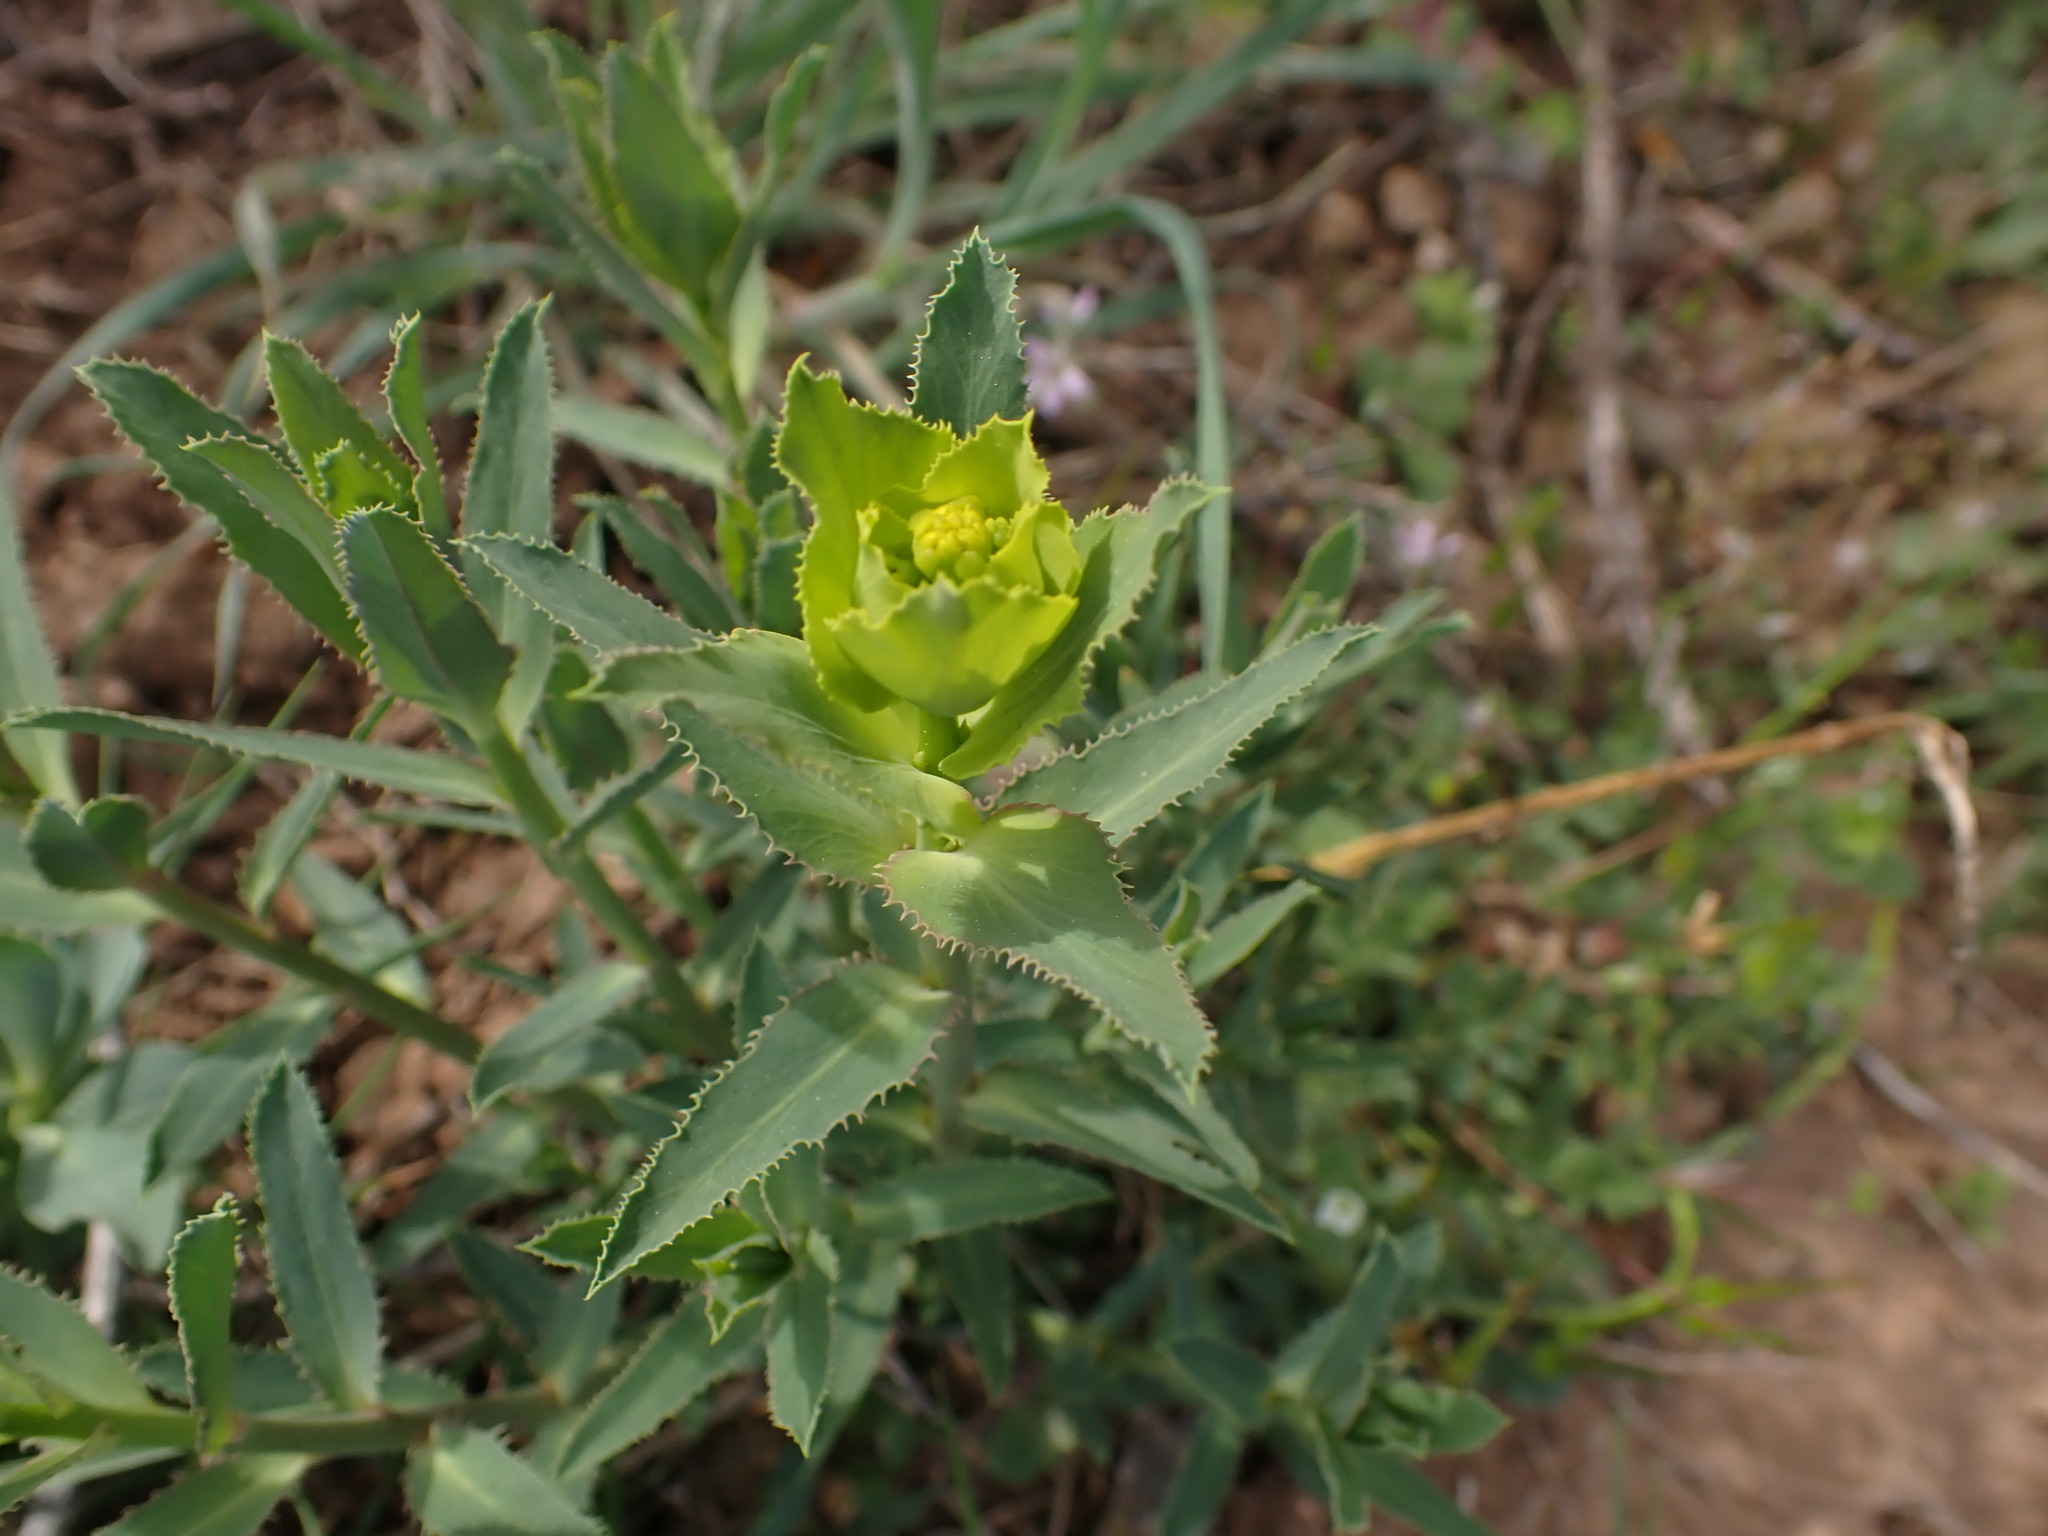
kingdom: Plantae
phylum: Tracheophyta
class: Magnoliopsida
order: Malpighiales
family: Euphorbiaceae
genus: Euphorbia
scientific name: Euphorbia serrata
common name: Serrate spurge
